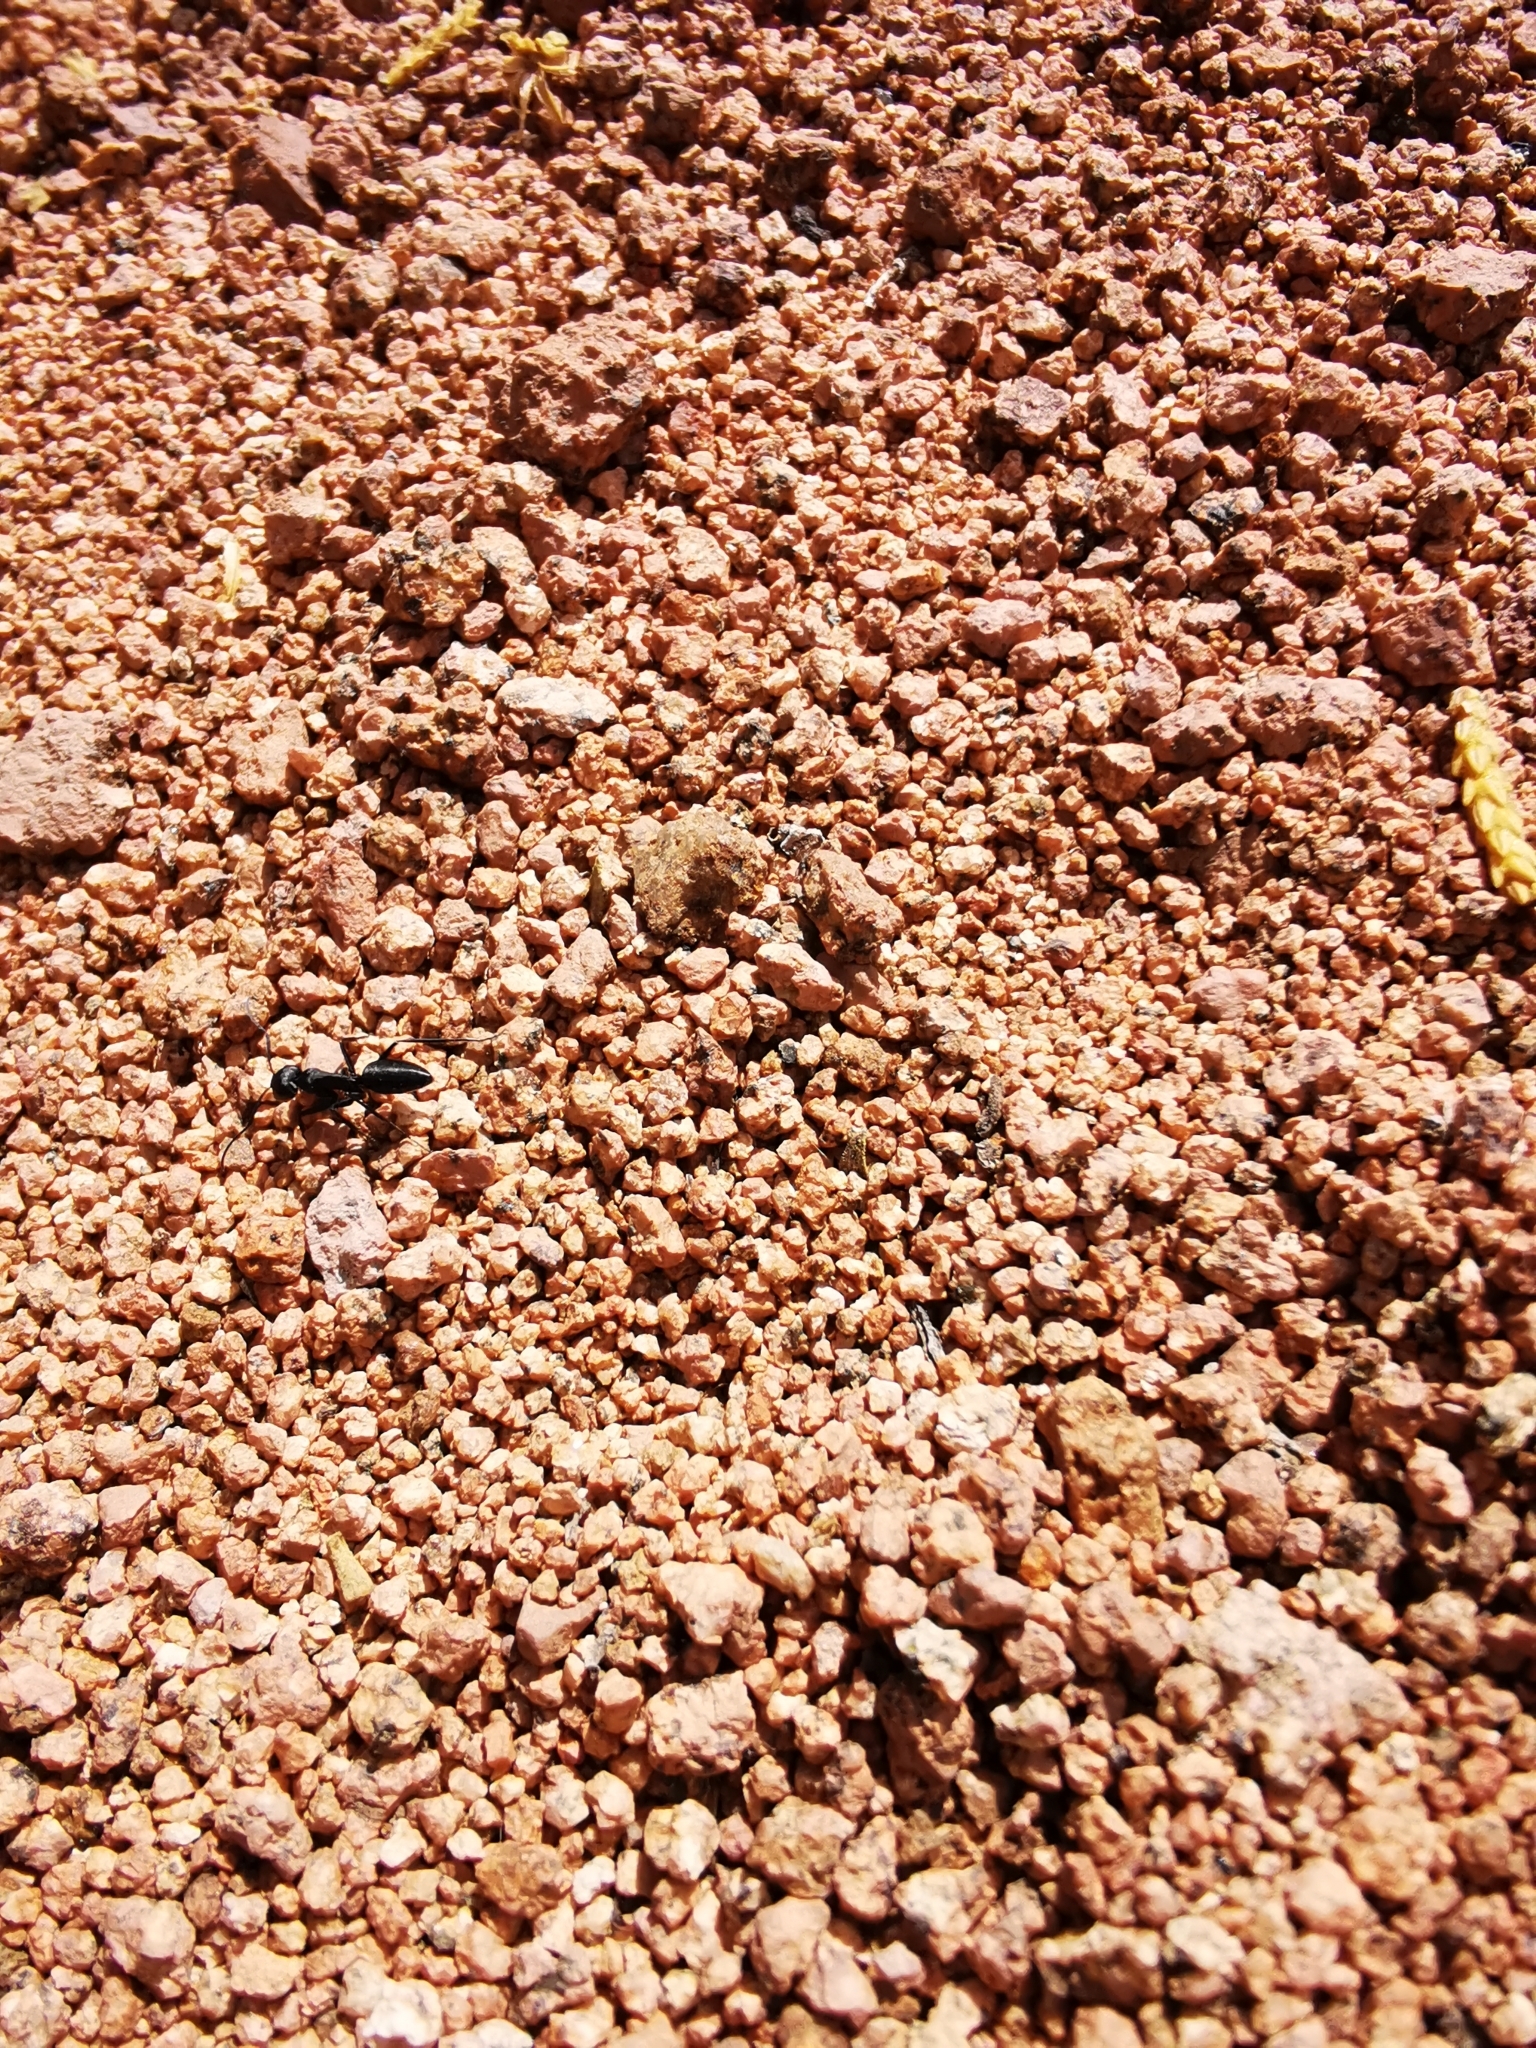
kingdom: Animalia
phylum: Arthropoda
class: Insecta
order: Hymenoptera
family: Formicidae
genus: Camponotus
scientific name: Camponotus hellmichi
